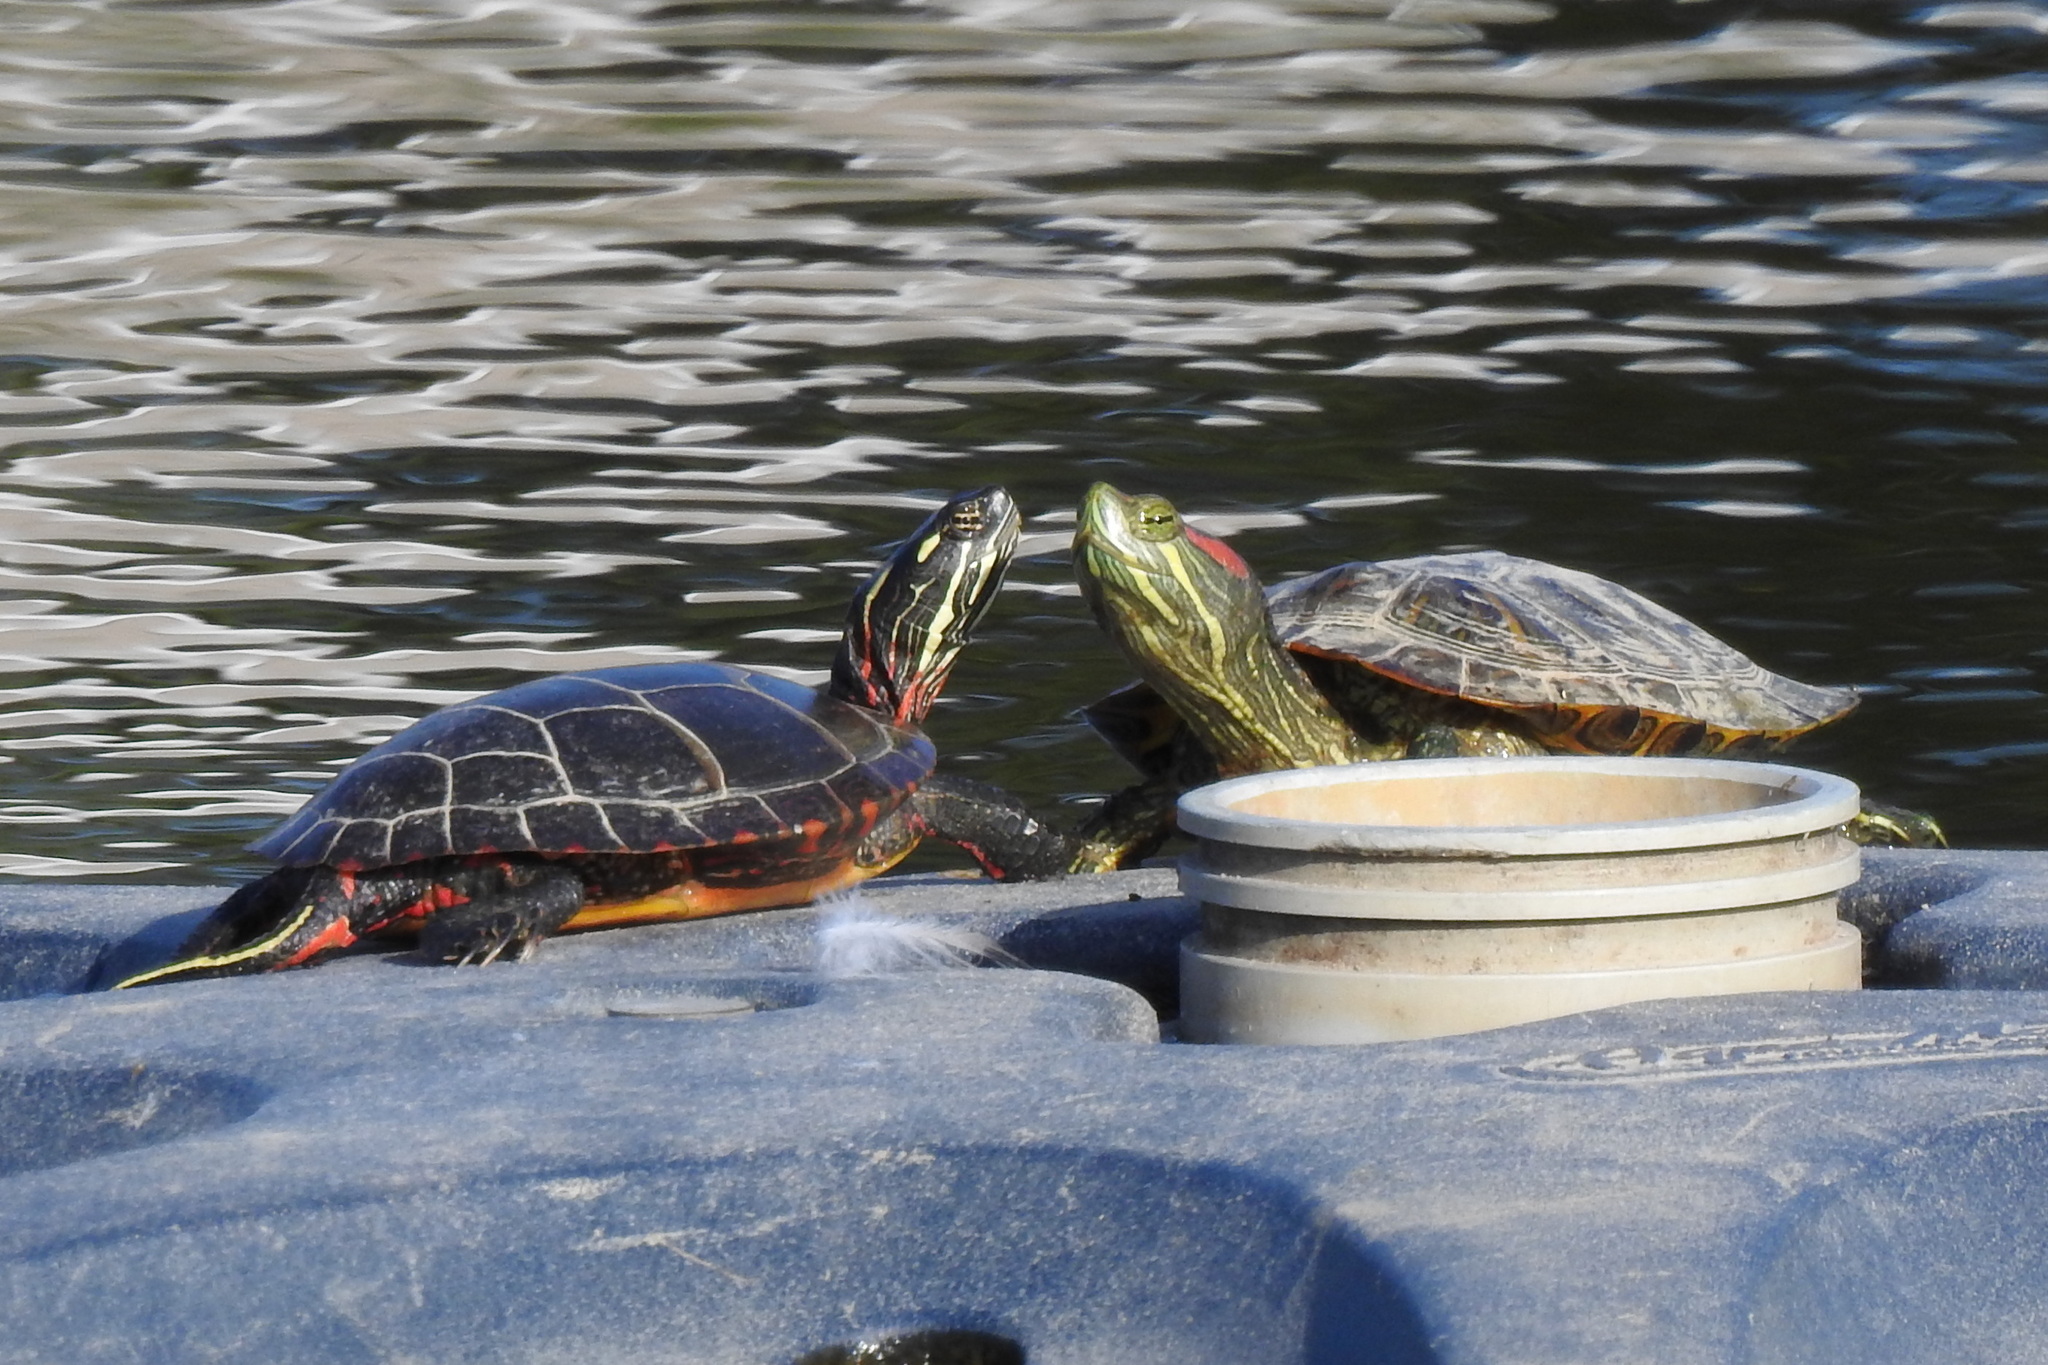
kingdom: Animalia
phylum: Chordata
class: Testudines
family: Emydidae
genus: Trachemys
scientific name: Trachemys scripta
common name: Slider
